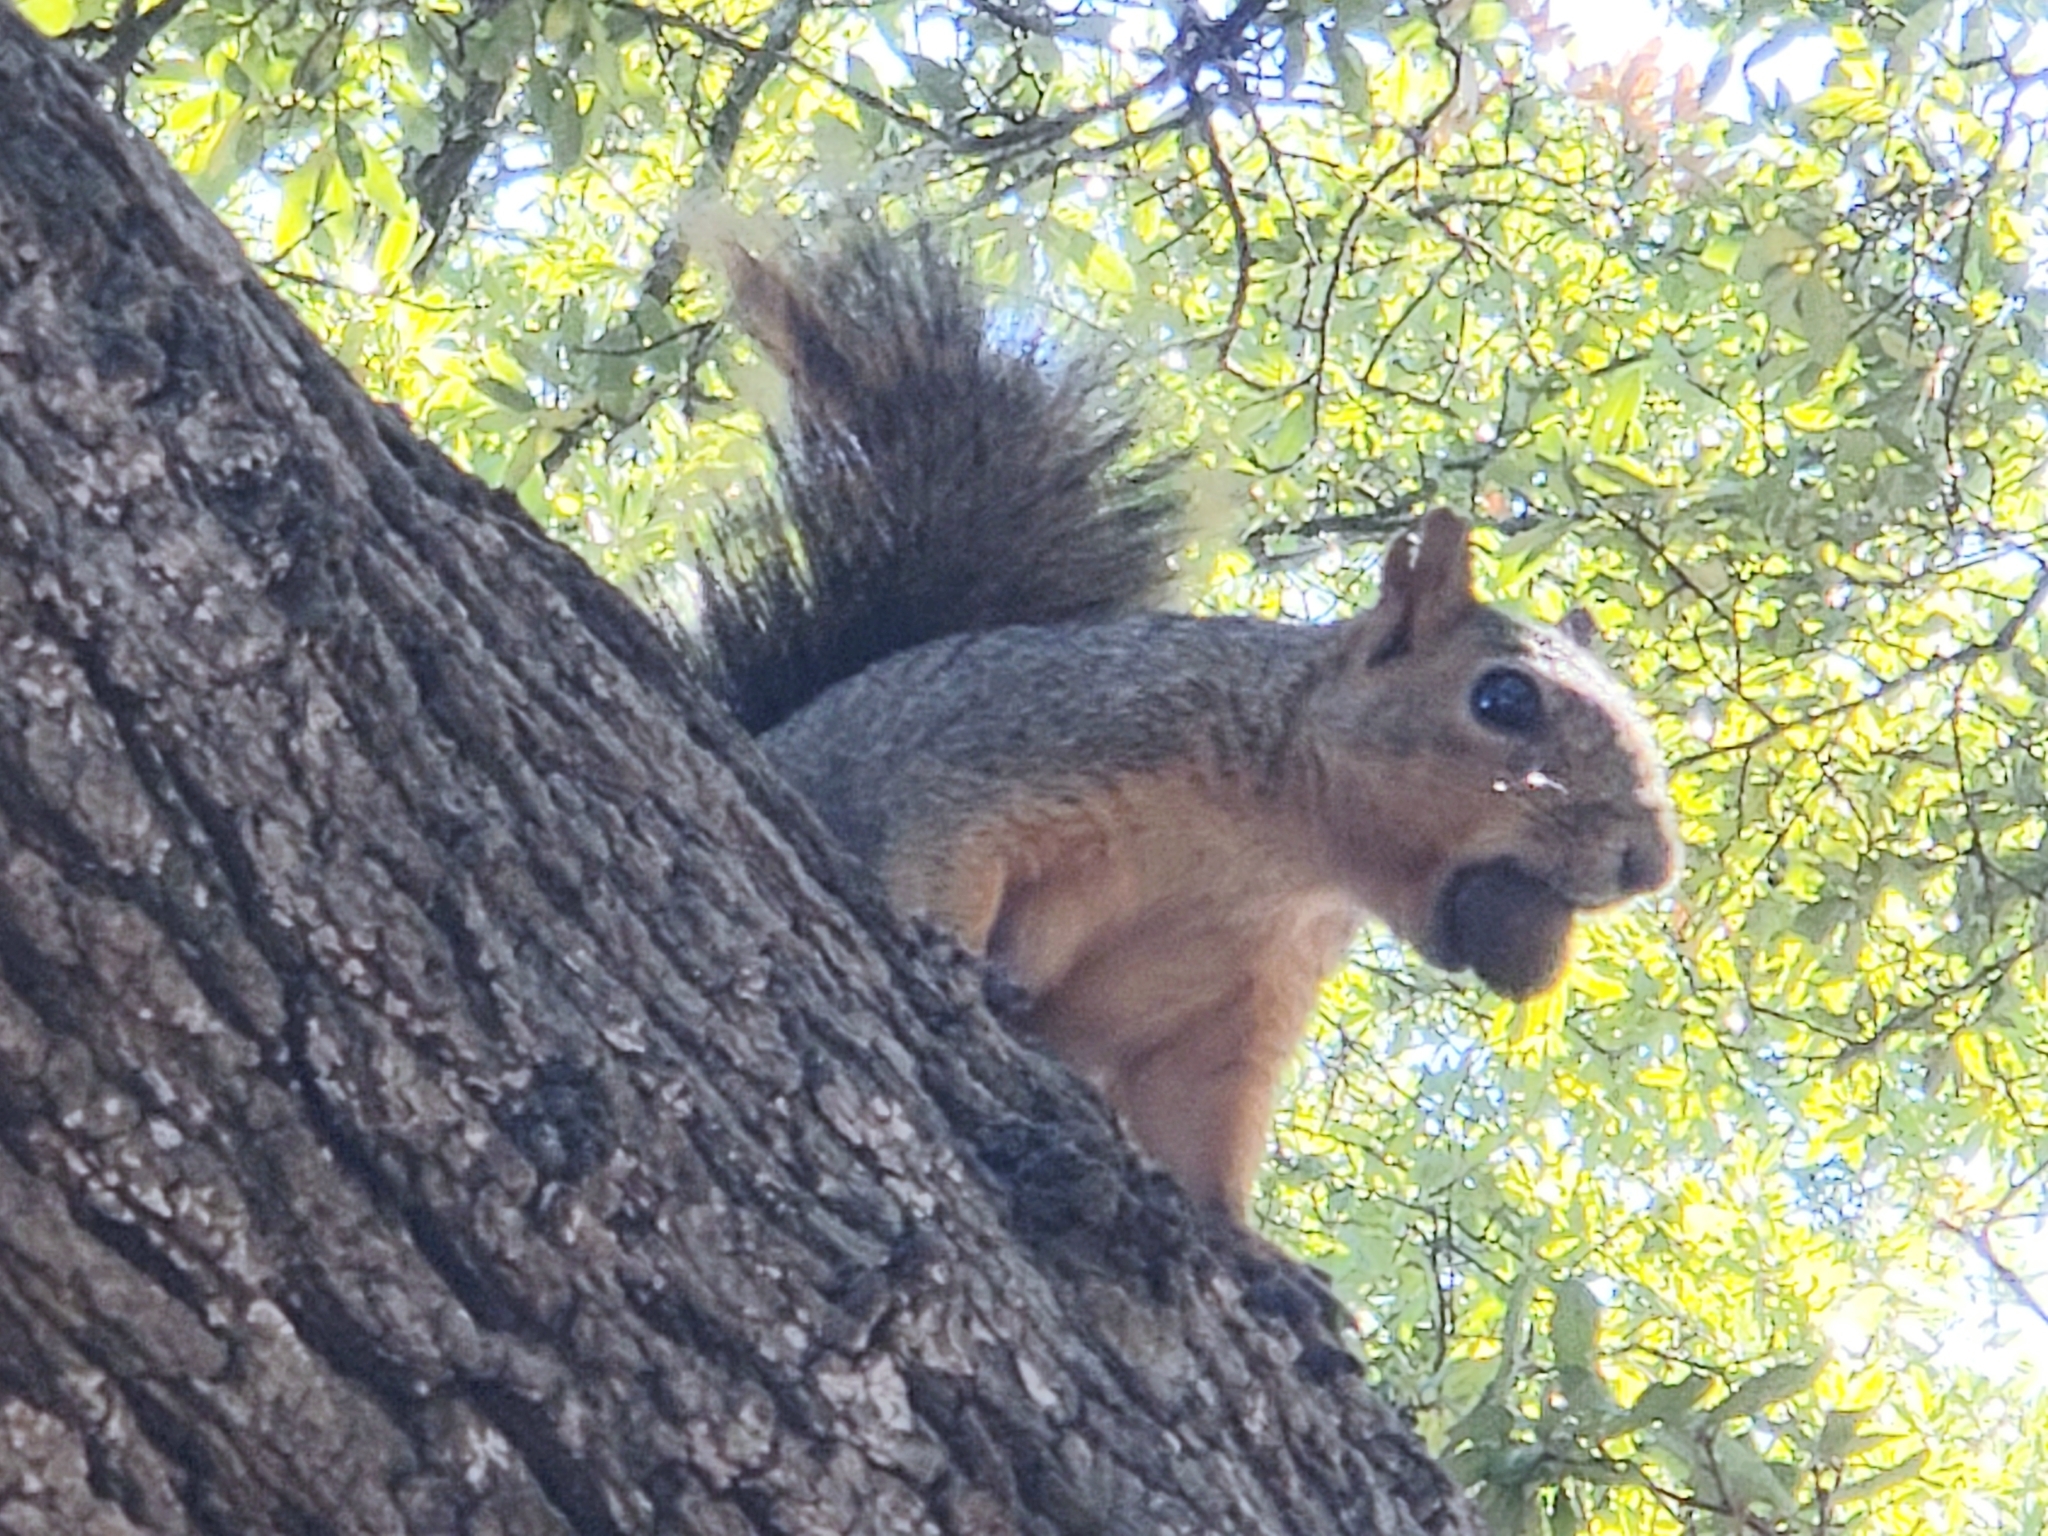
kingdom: Animalia
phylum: Chordata
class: Mammalia
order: Rodentia
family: Sciuridae
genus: Sciurus
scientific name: Sciurus niger
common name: Fox squirrel
